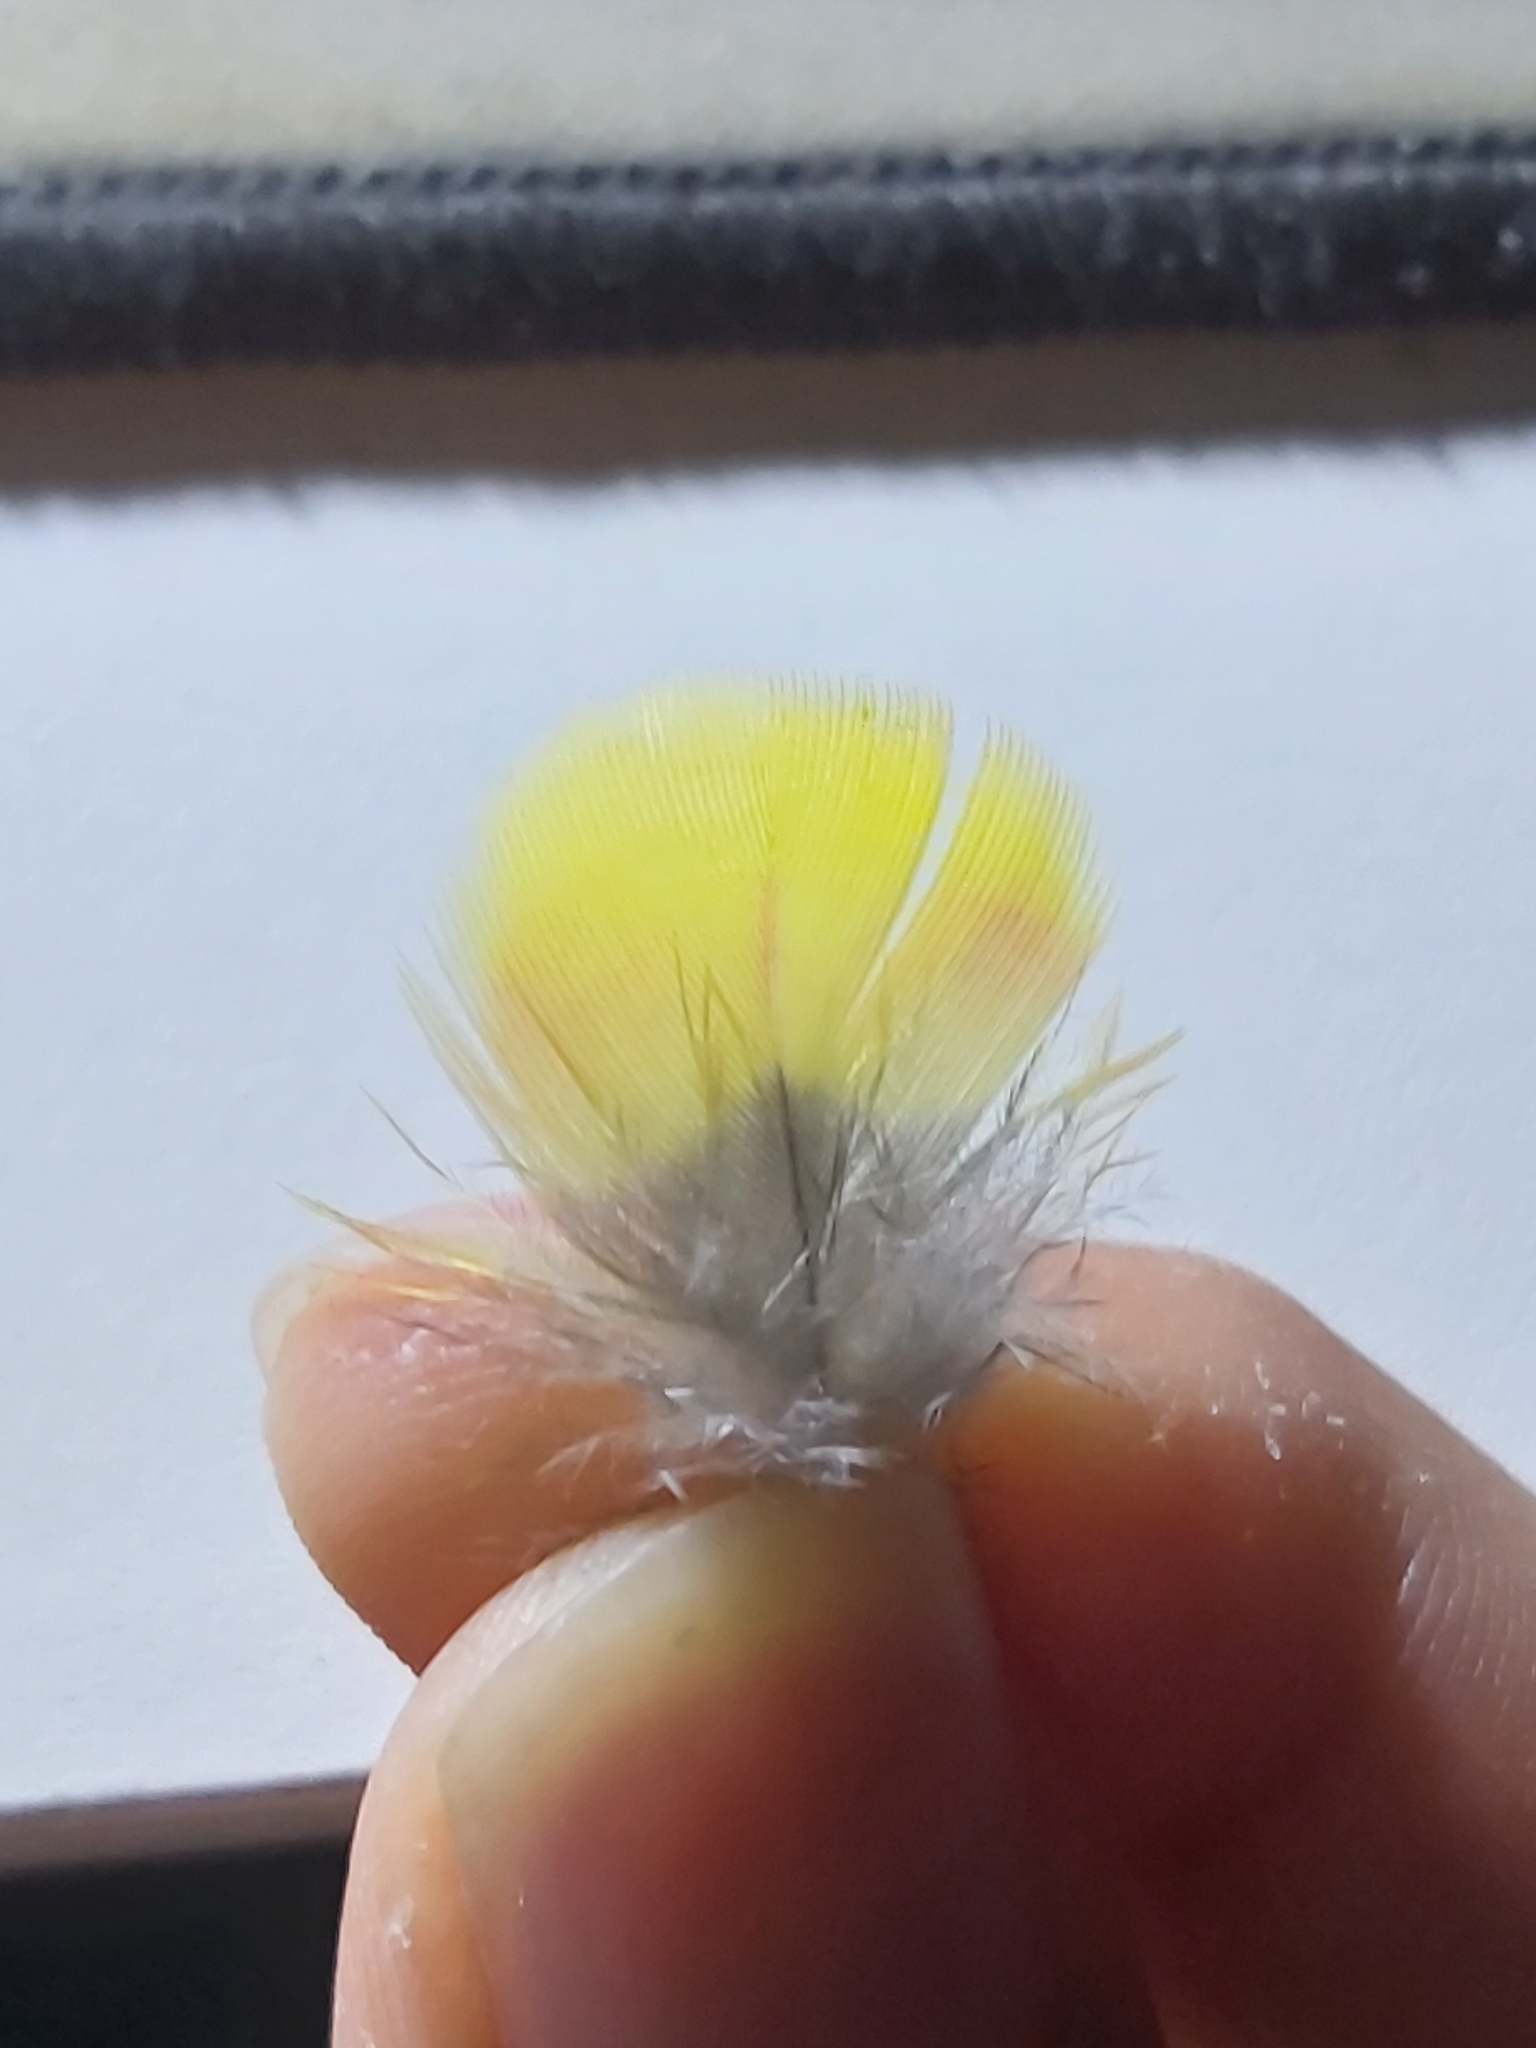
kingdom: Animalia
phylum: Chordata
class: Aves
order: Psittaciformes
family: Psittacidae
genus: Trichoglossus
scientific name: Trichoglossus haematodus
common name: Coconut lorikeet
